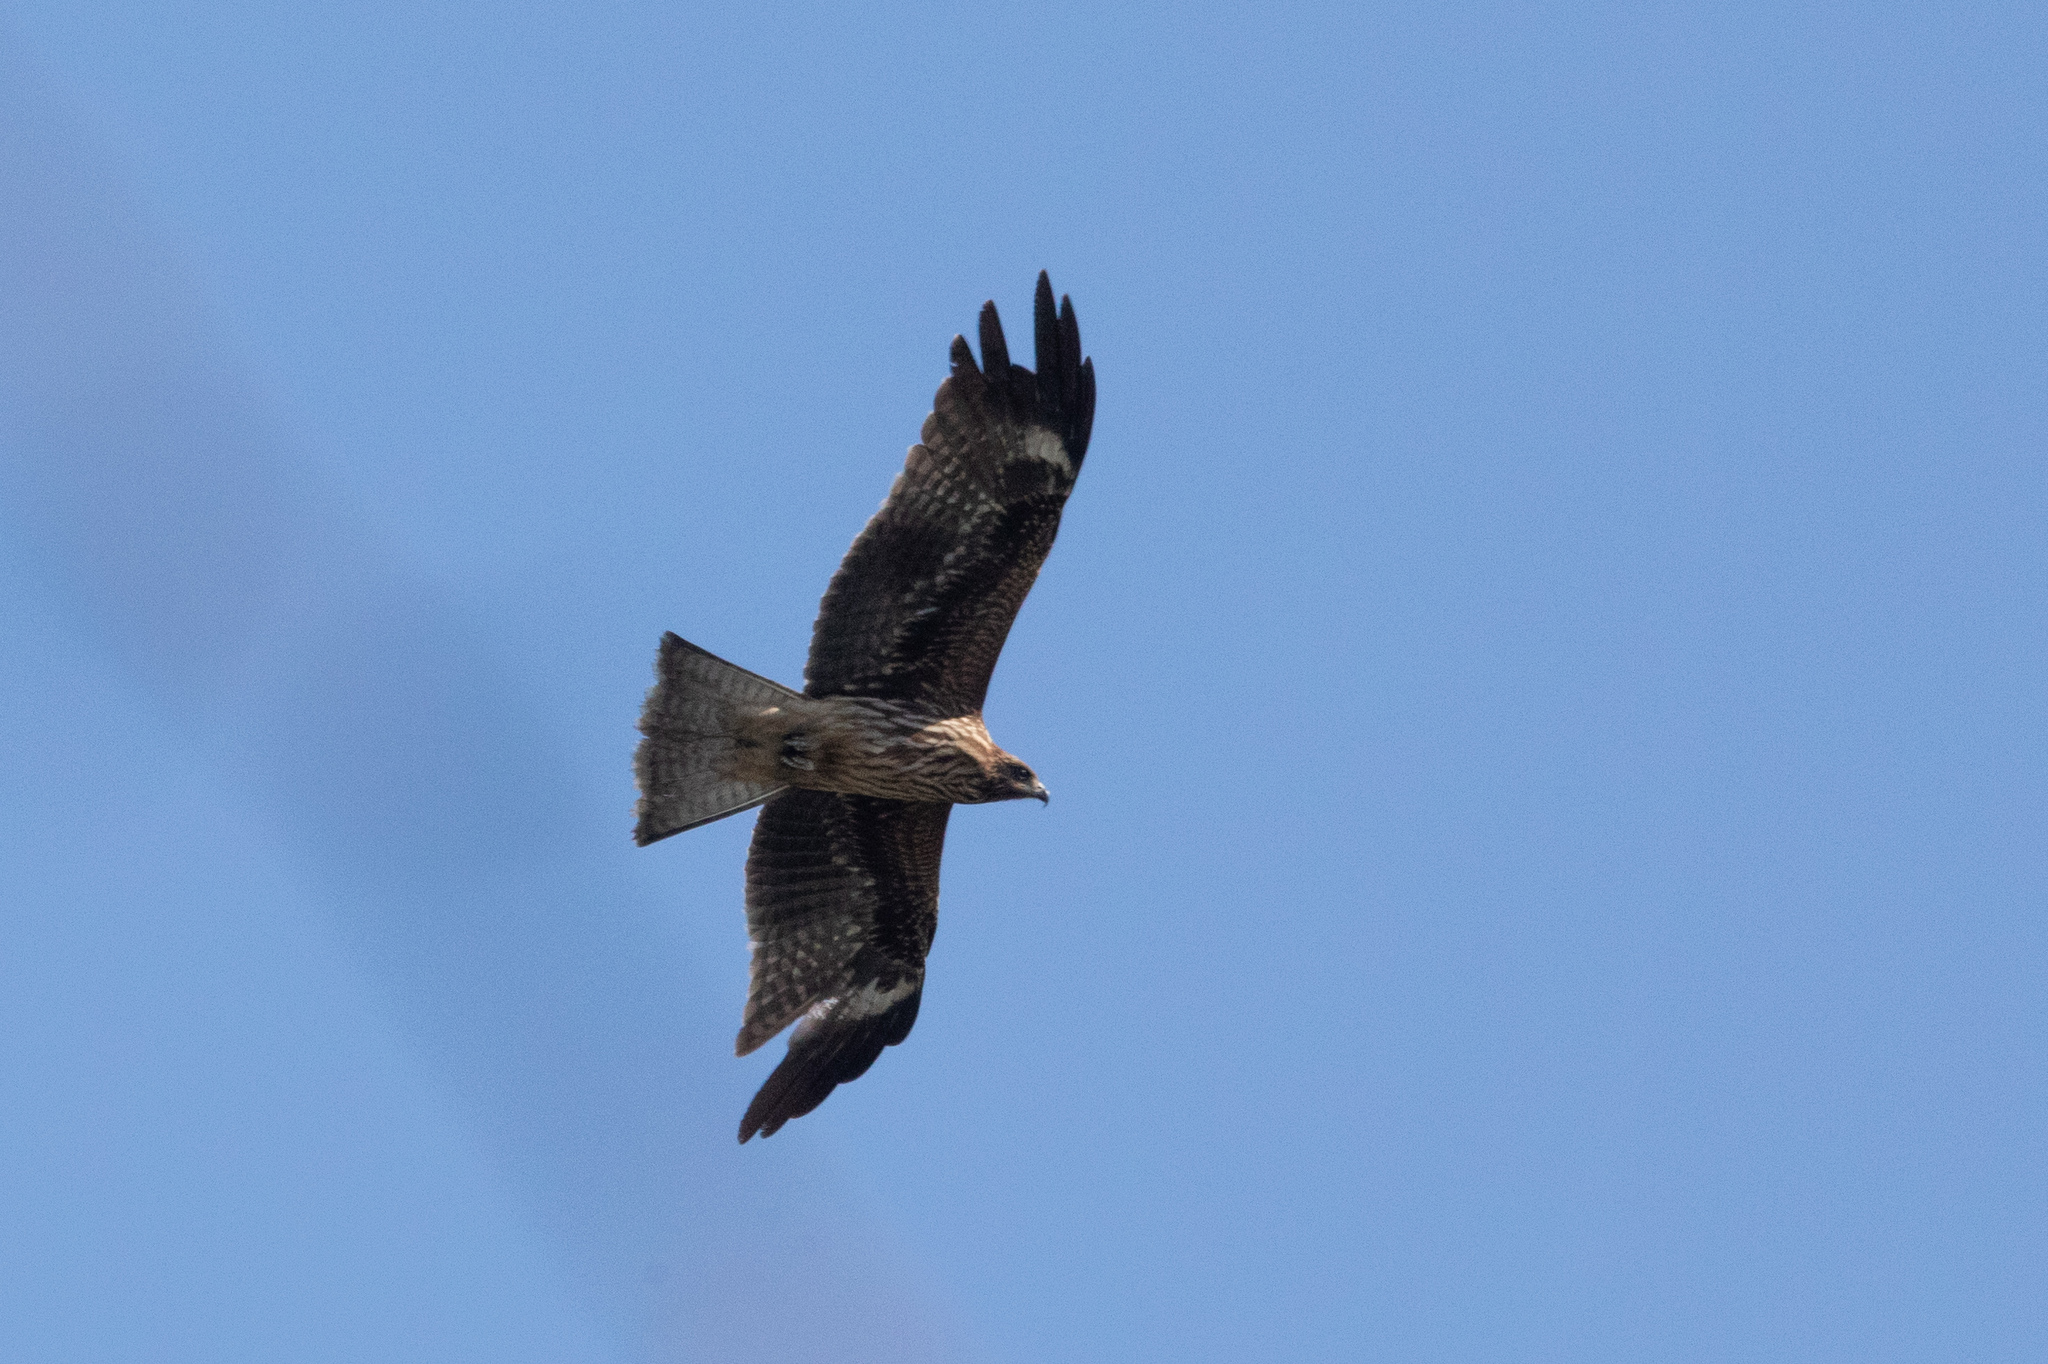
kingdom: Animalia
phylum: Chordata
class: Aves
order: Accipitriformes
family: Accipitridae
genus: Milvus
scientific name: Milvus migrans
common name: Black kite
